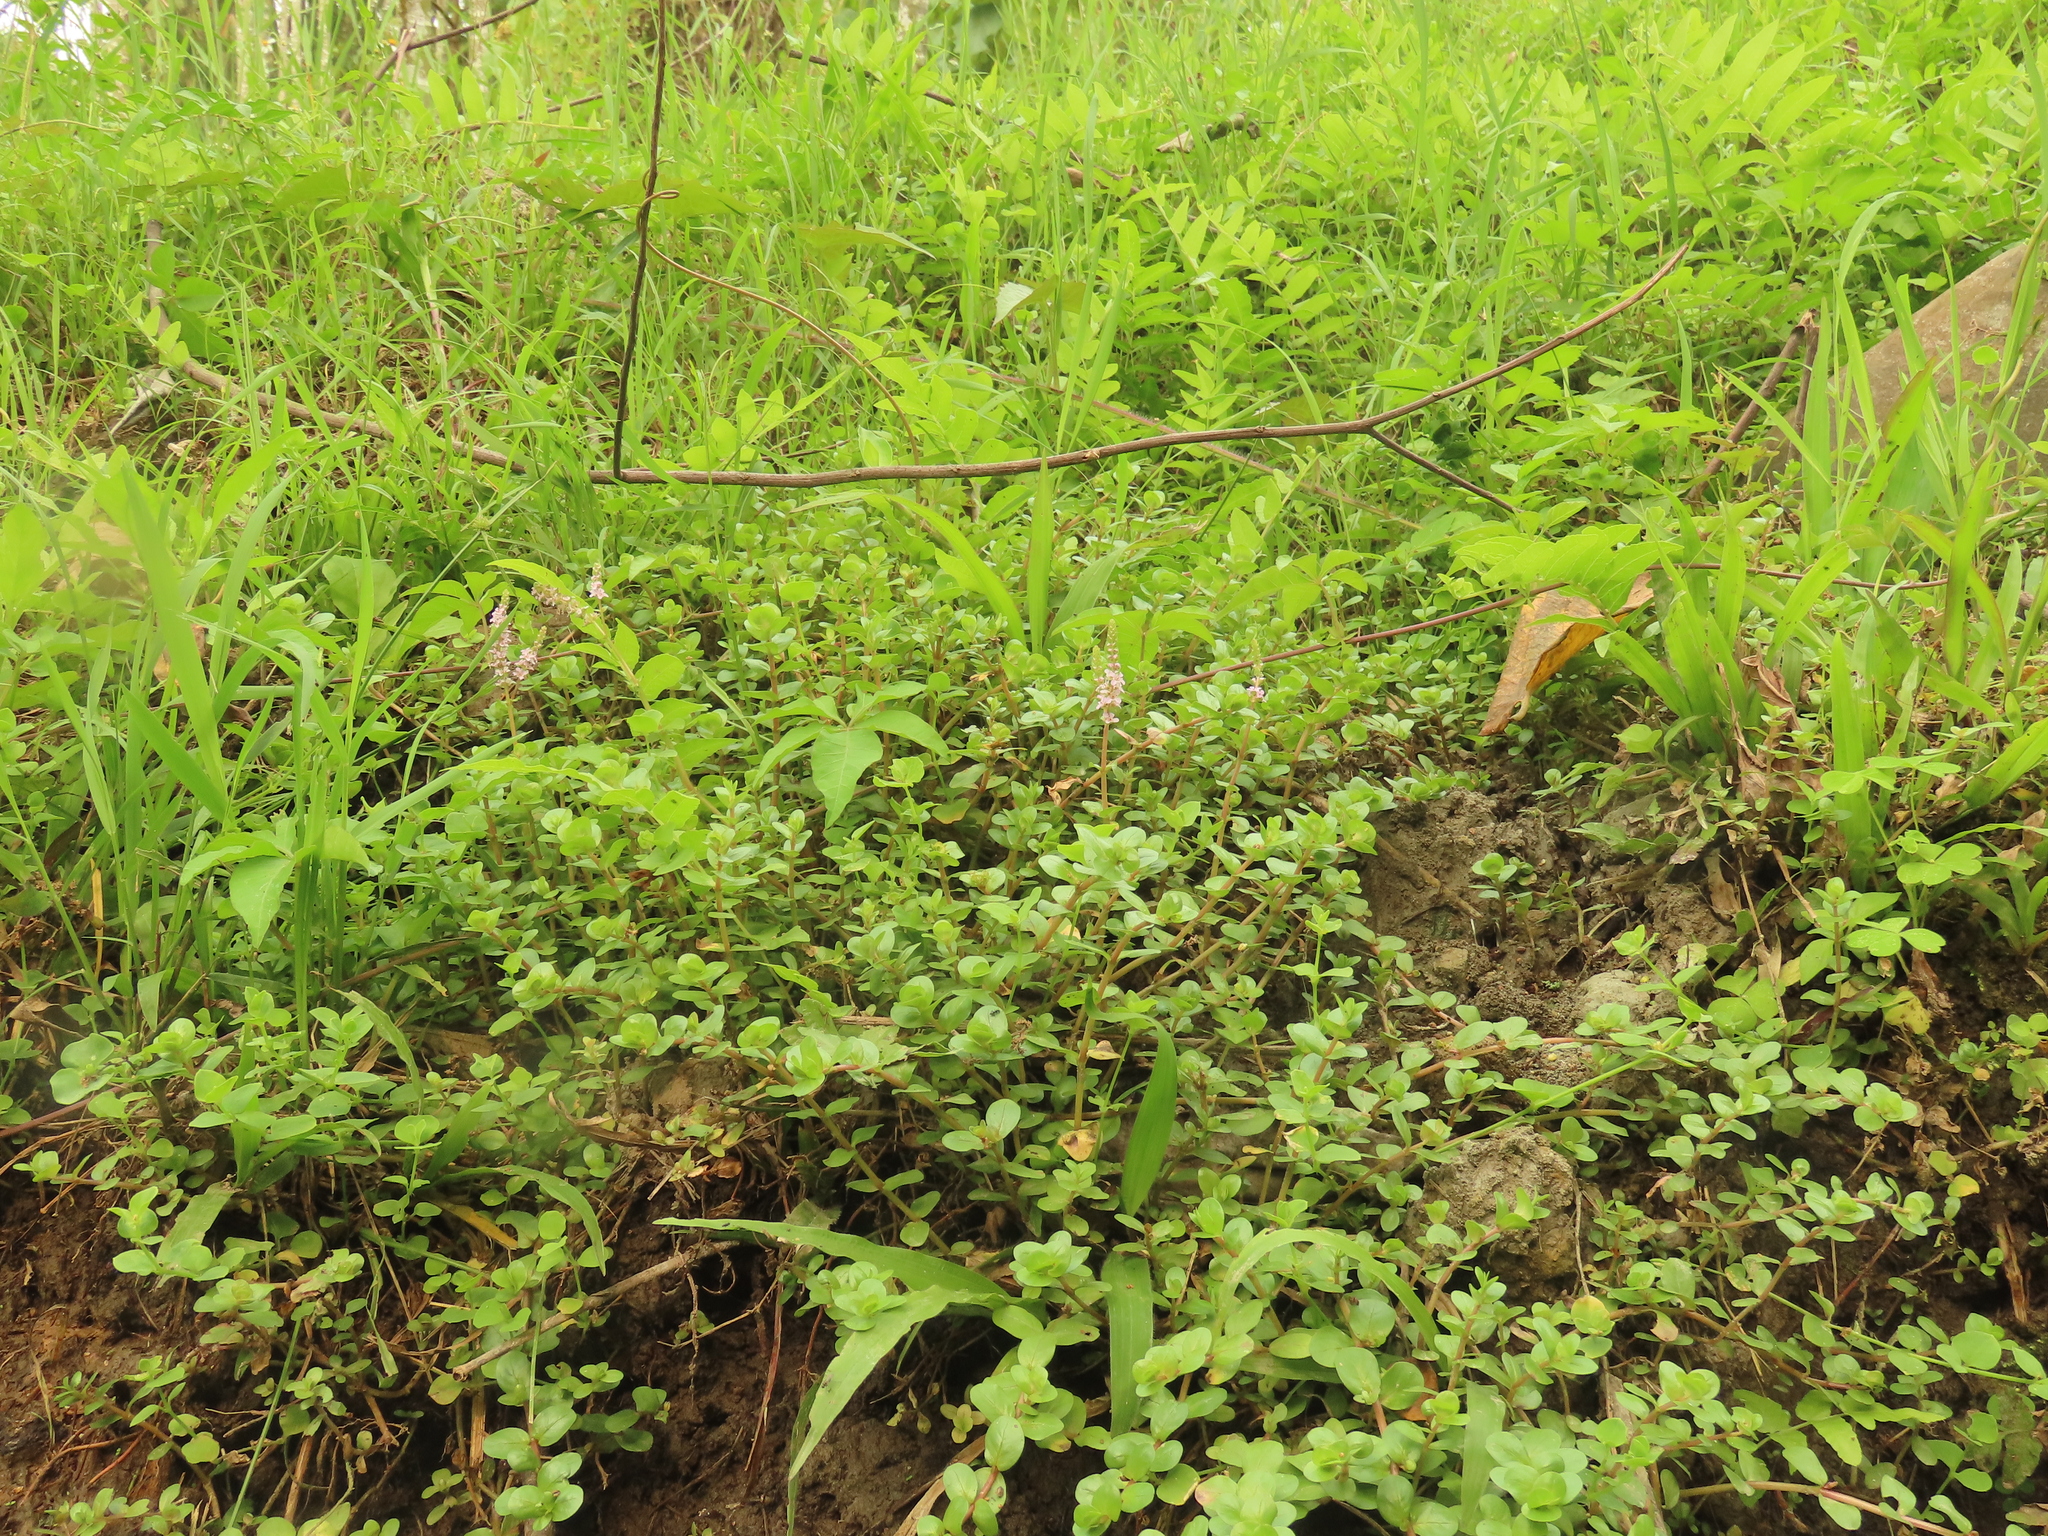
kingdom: Plantae
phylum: Tracheophyta
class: Magnoliopsida
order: Myrtales
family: Lythraceae
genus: Rotala
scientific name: Rotala rotundifolia
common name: Roundleaf toothcup
